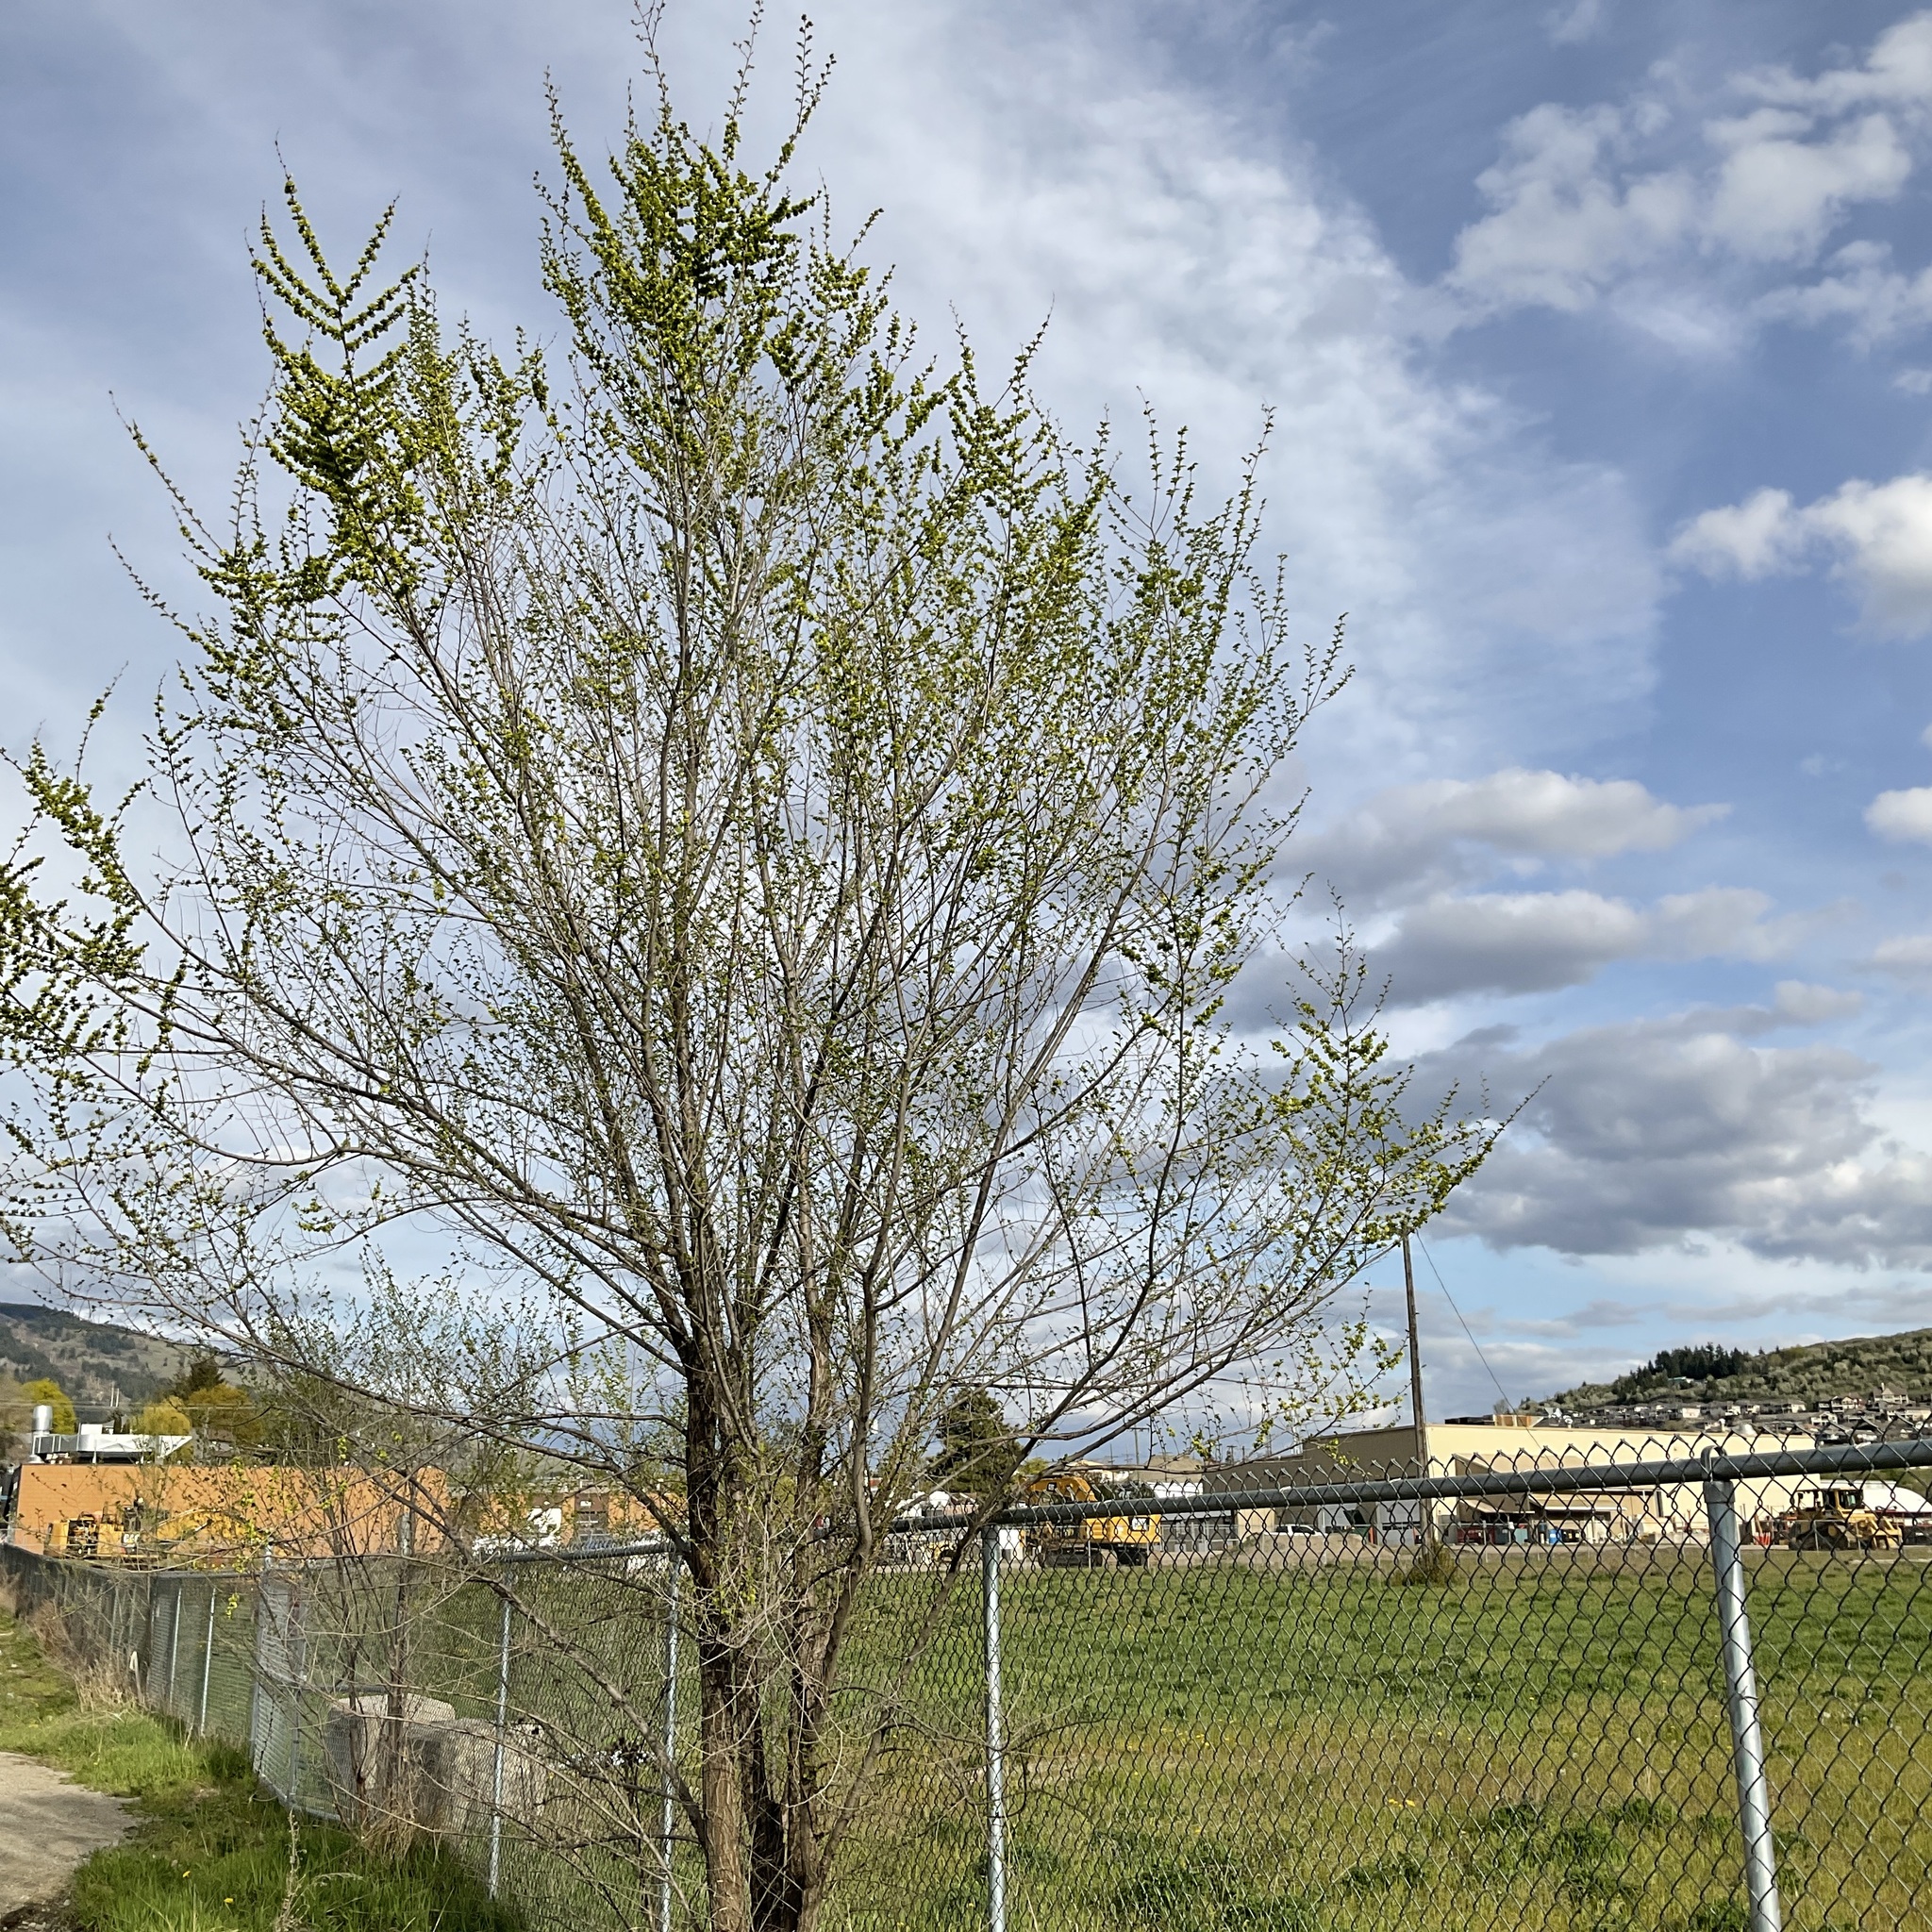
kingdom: Plantae
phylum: Tracheophyta
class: Magnoliopsida
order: Rosales
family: Ulmaceae
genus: Ulmus
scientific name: Ulmus pumila
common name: Siberian elm
